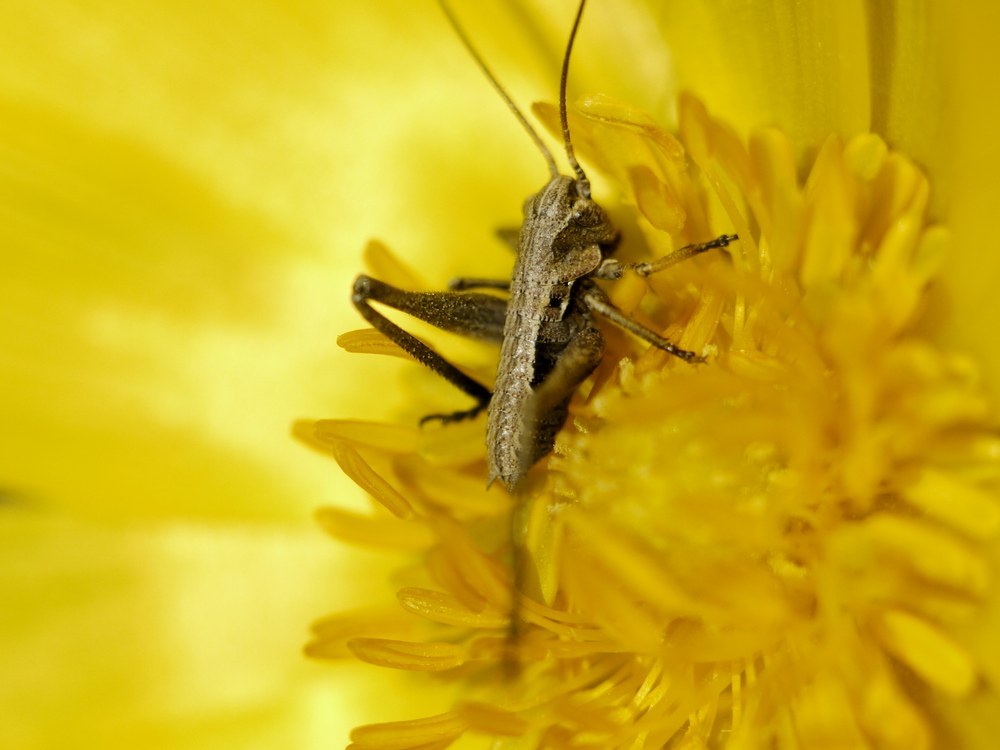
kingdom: Animalia
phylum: Arthropoda
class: Insecta
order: Orthoptera
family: Tettigoniidae
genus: Decticus
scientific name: Decticus verrucivorus
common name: Wart-biter
